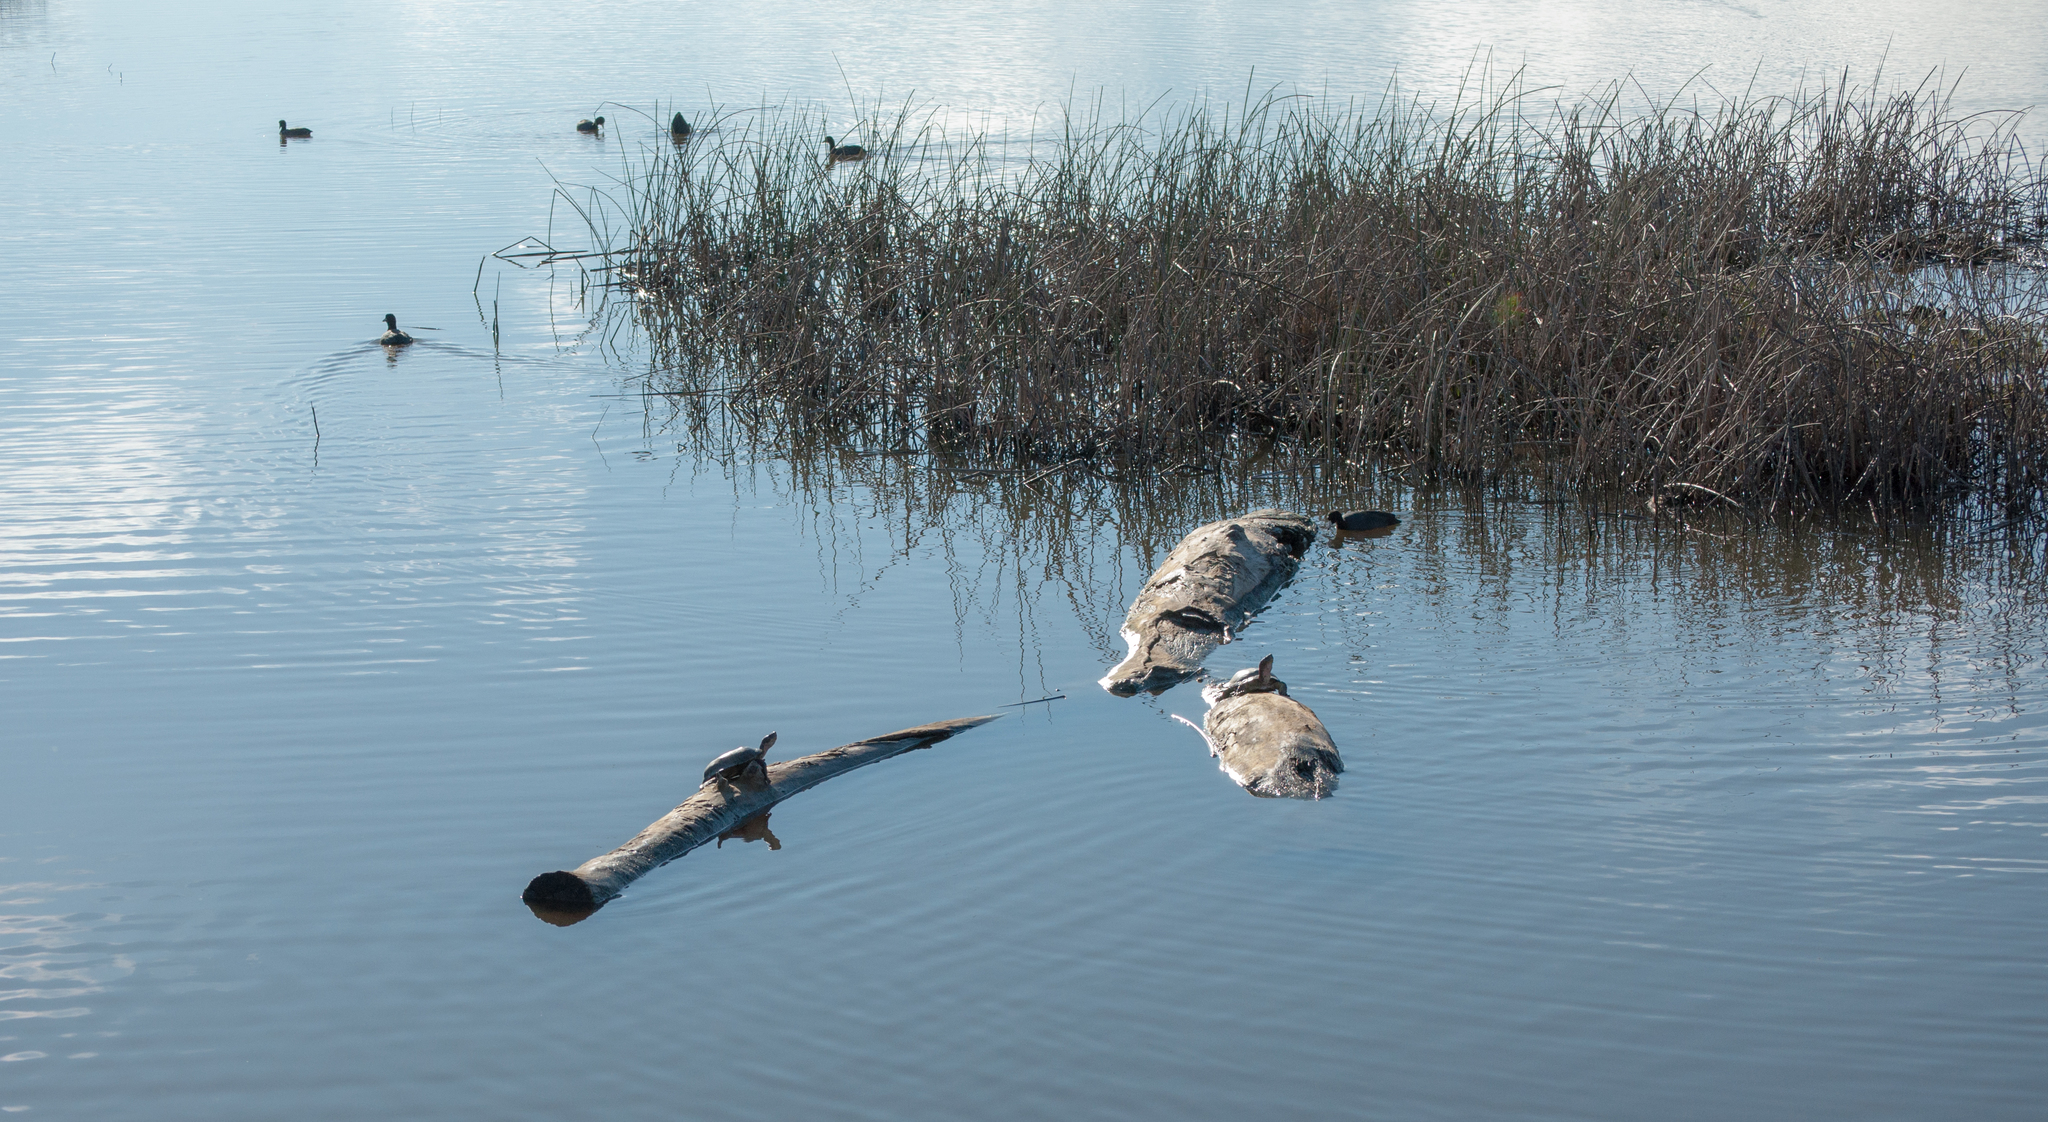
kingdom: Animalia
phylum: Chordata
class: Testudines
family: Emydidae
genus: Actinemys
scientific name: Actinemys marmorata
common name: Western pond turtle
